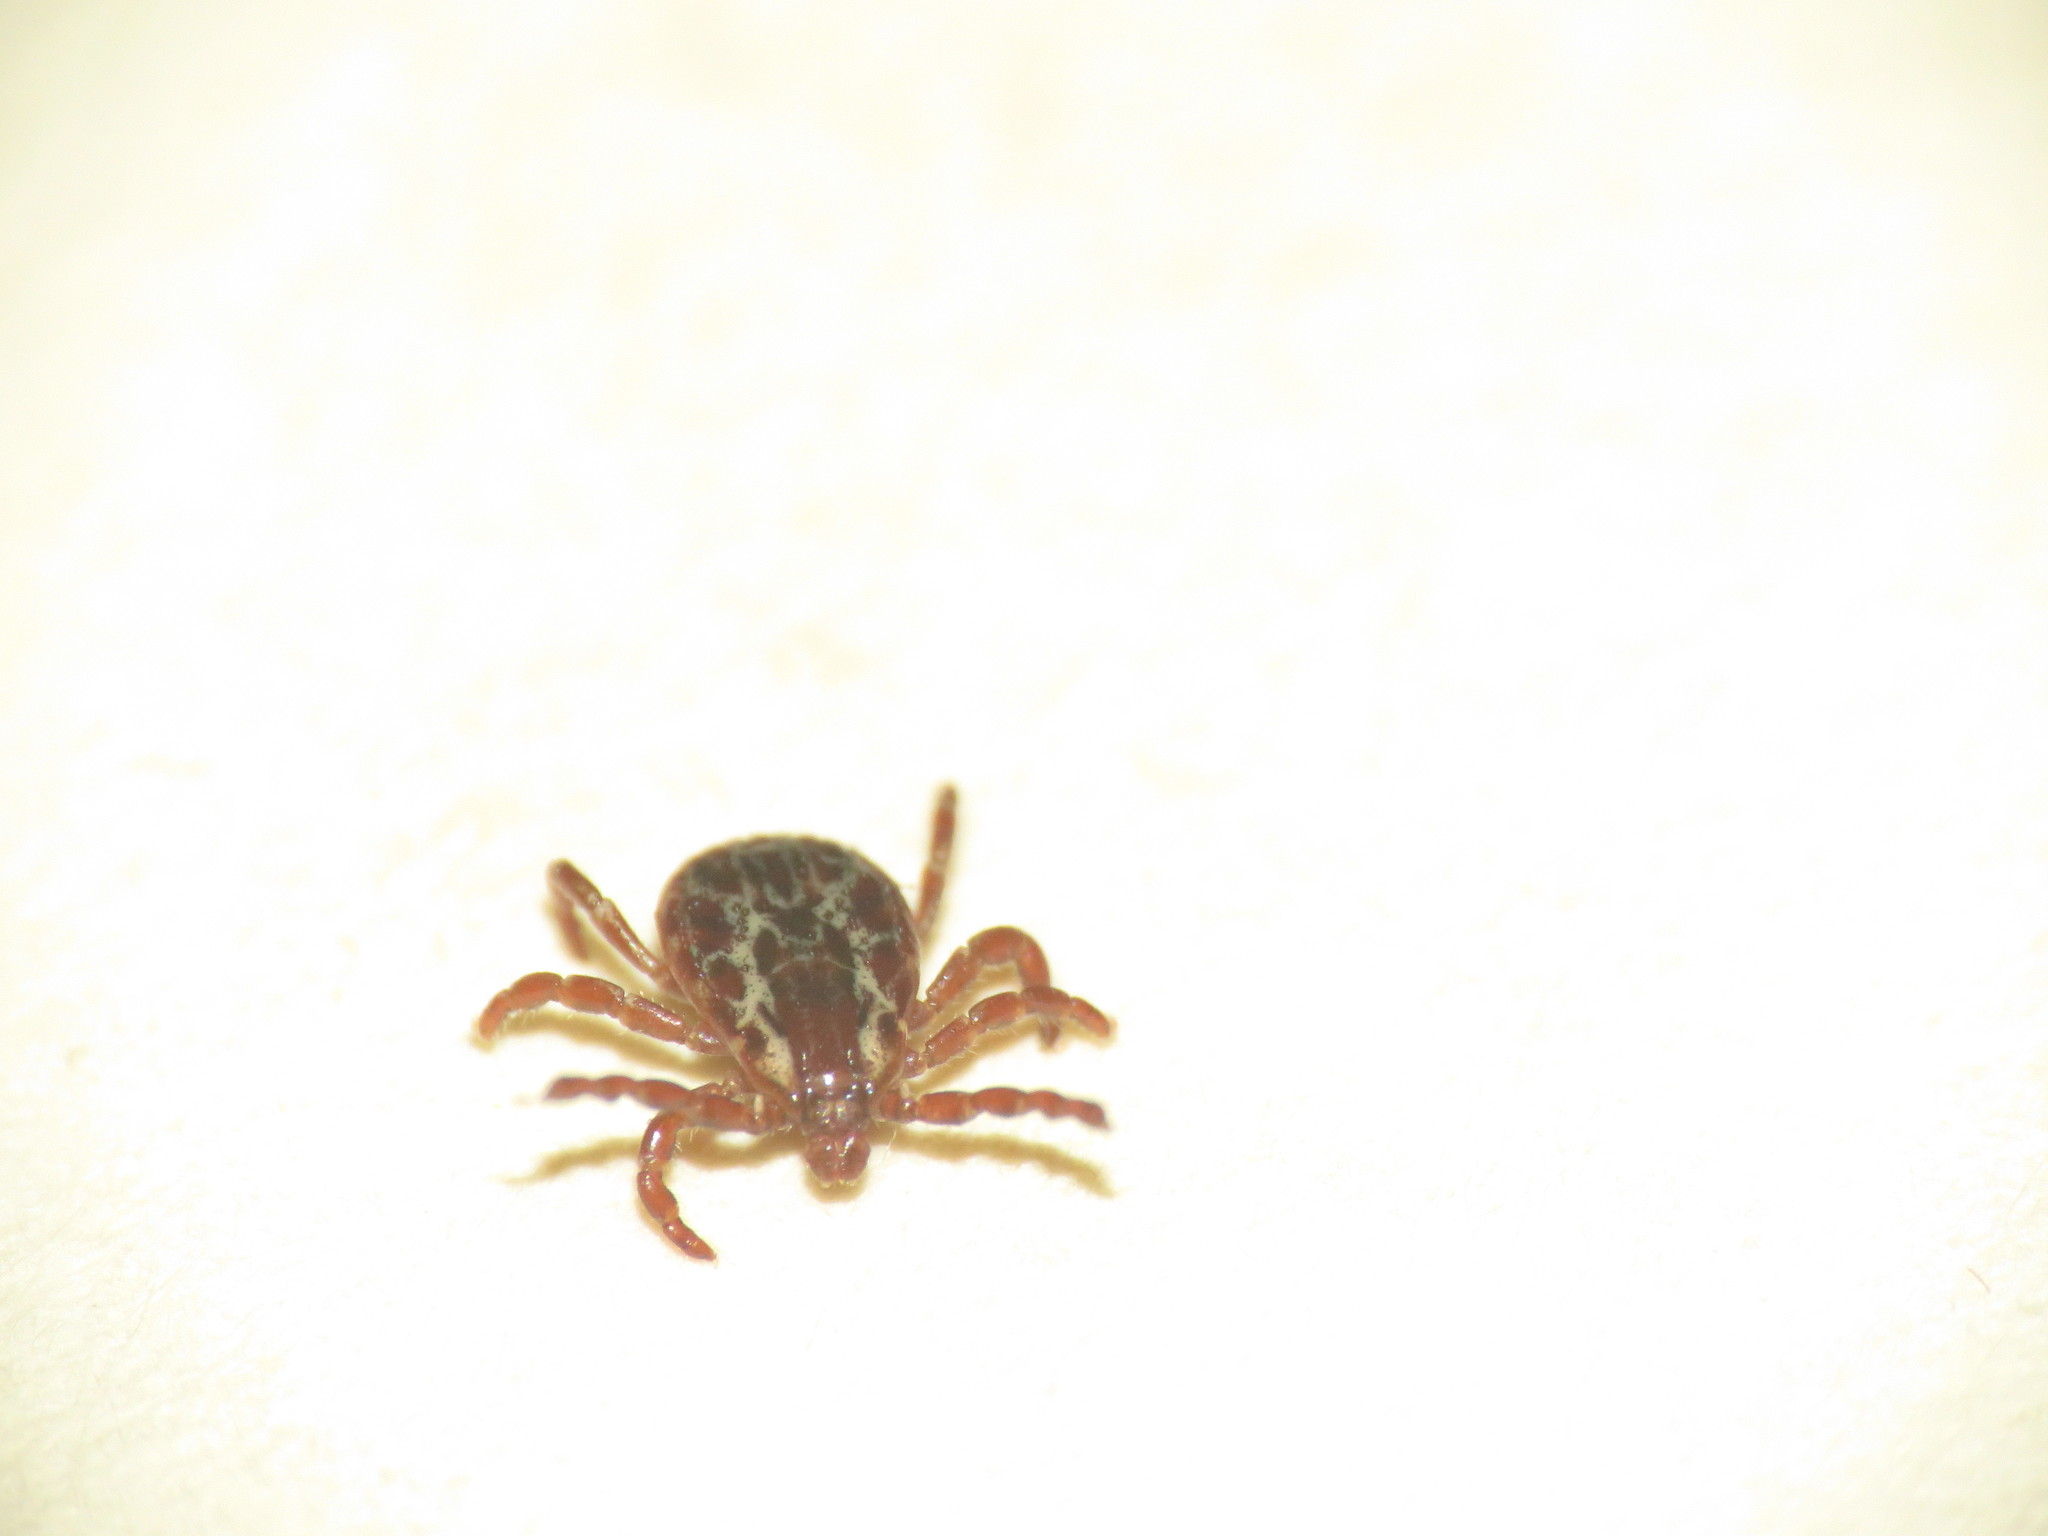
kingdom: Animalia
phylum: Arthropoda
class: Arachnida
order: Ixodida
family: Ixodidae
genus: Dermacentor
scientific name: Dermacentor variabilis
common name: American dog tick
